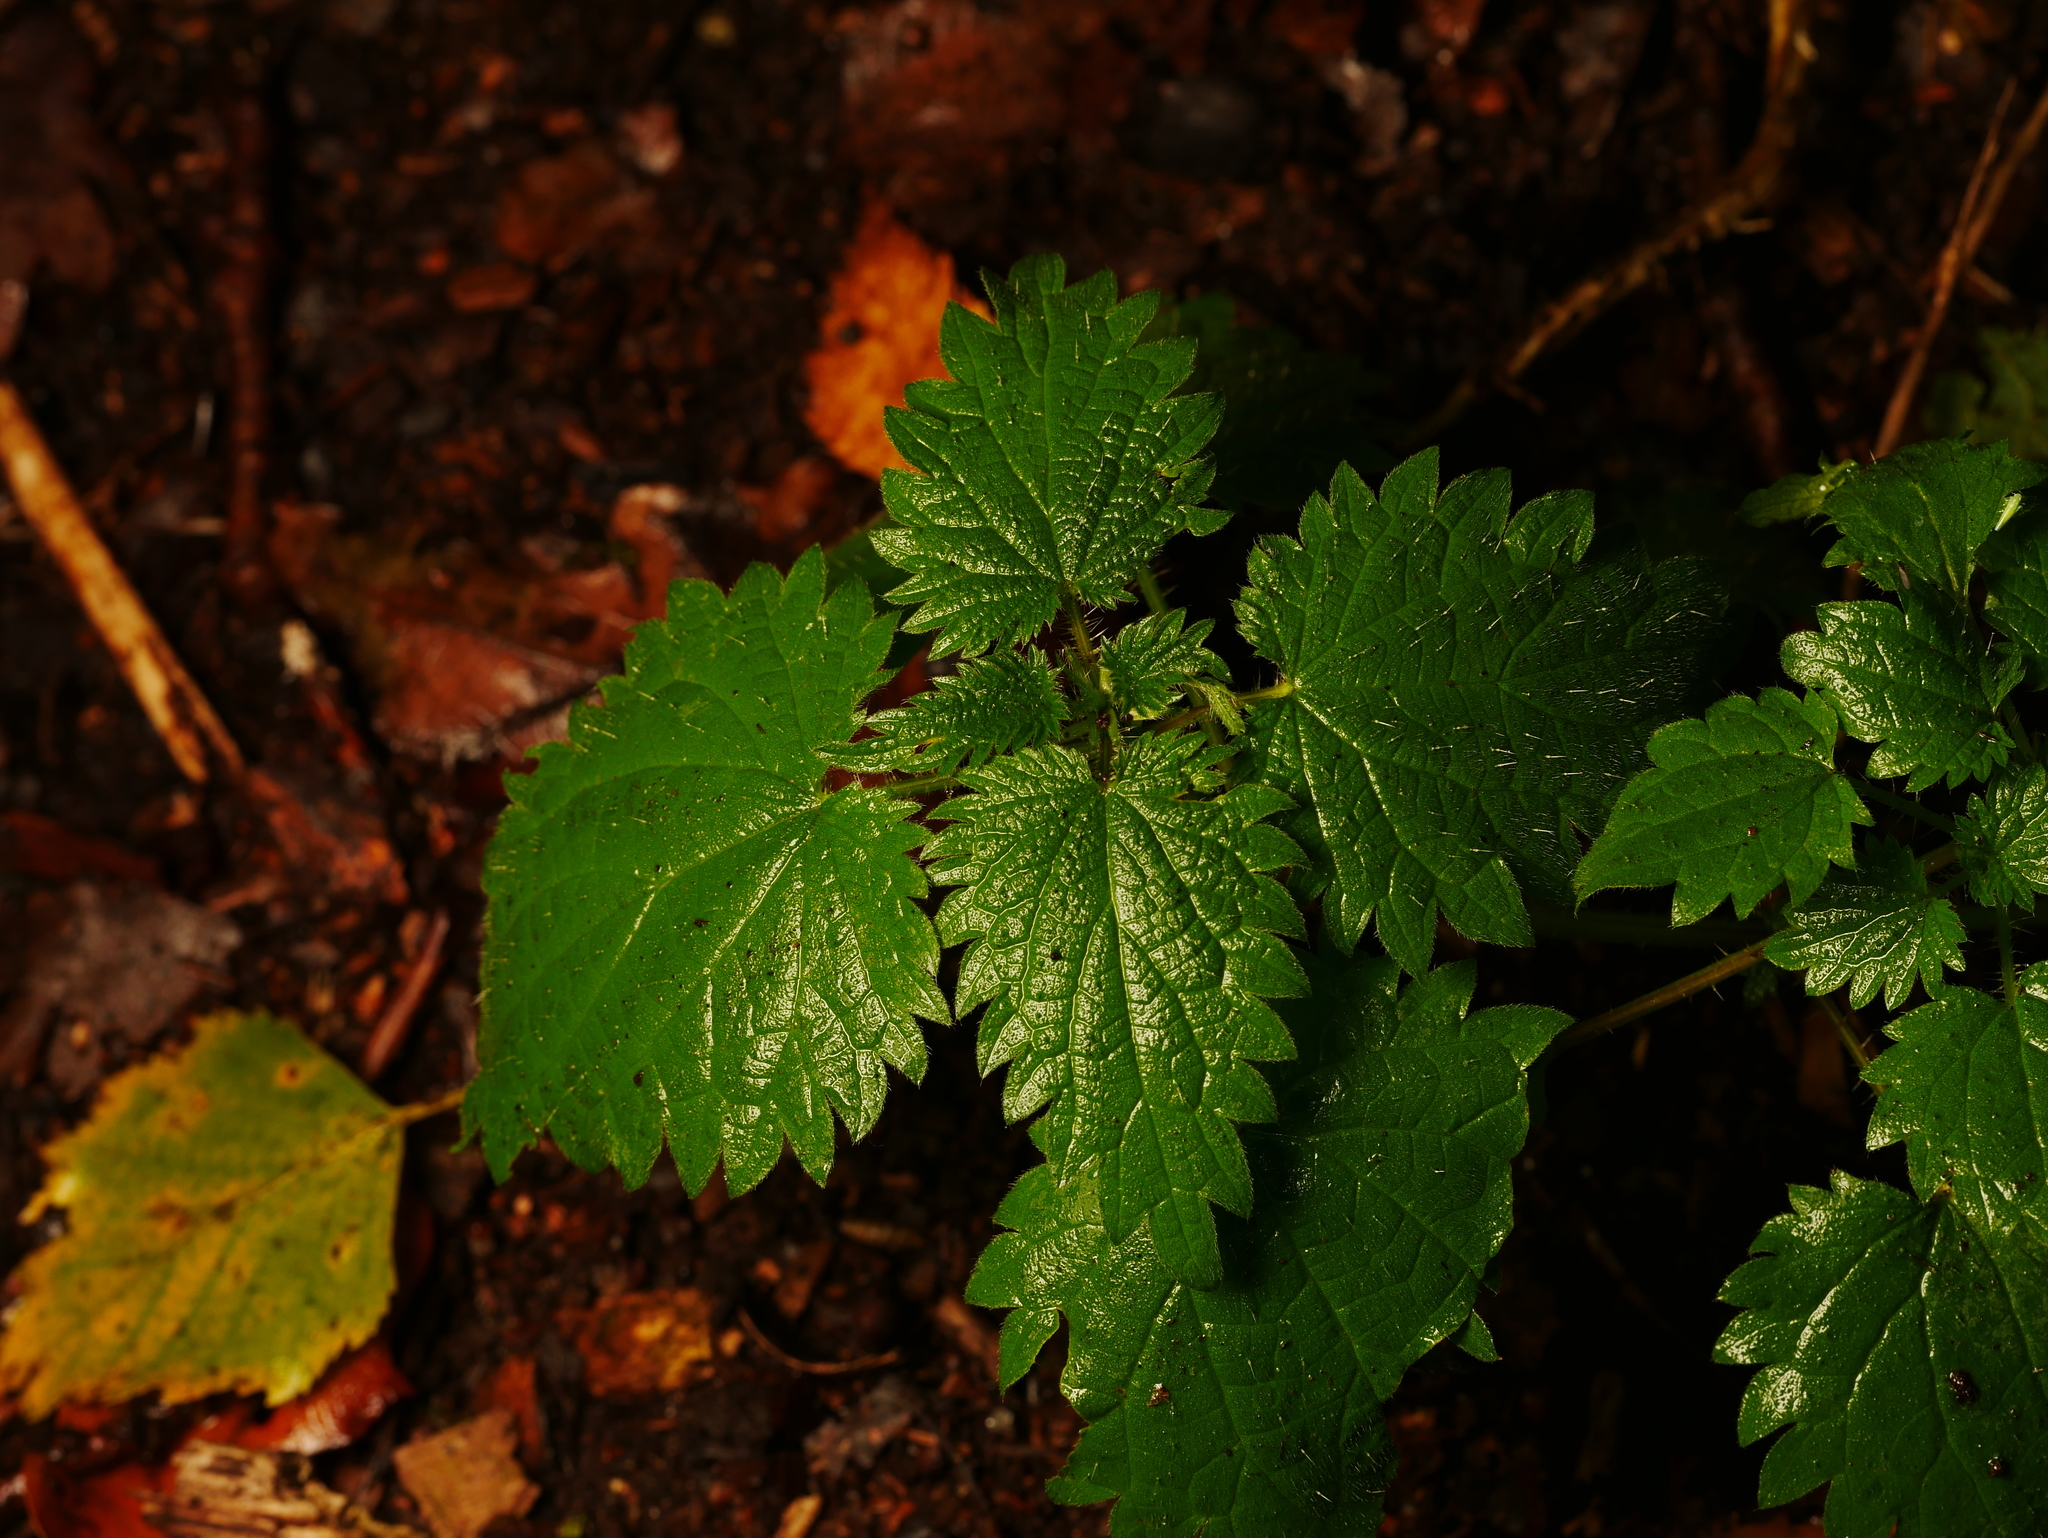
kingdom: Plantae
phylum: Tracheophyta
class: Magnoliopsida
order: Rosales
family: Urticaceae
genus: Urtica
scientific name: Urtica dioica
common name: Common nettle
